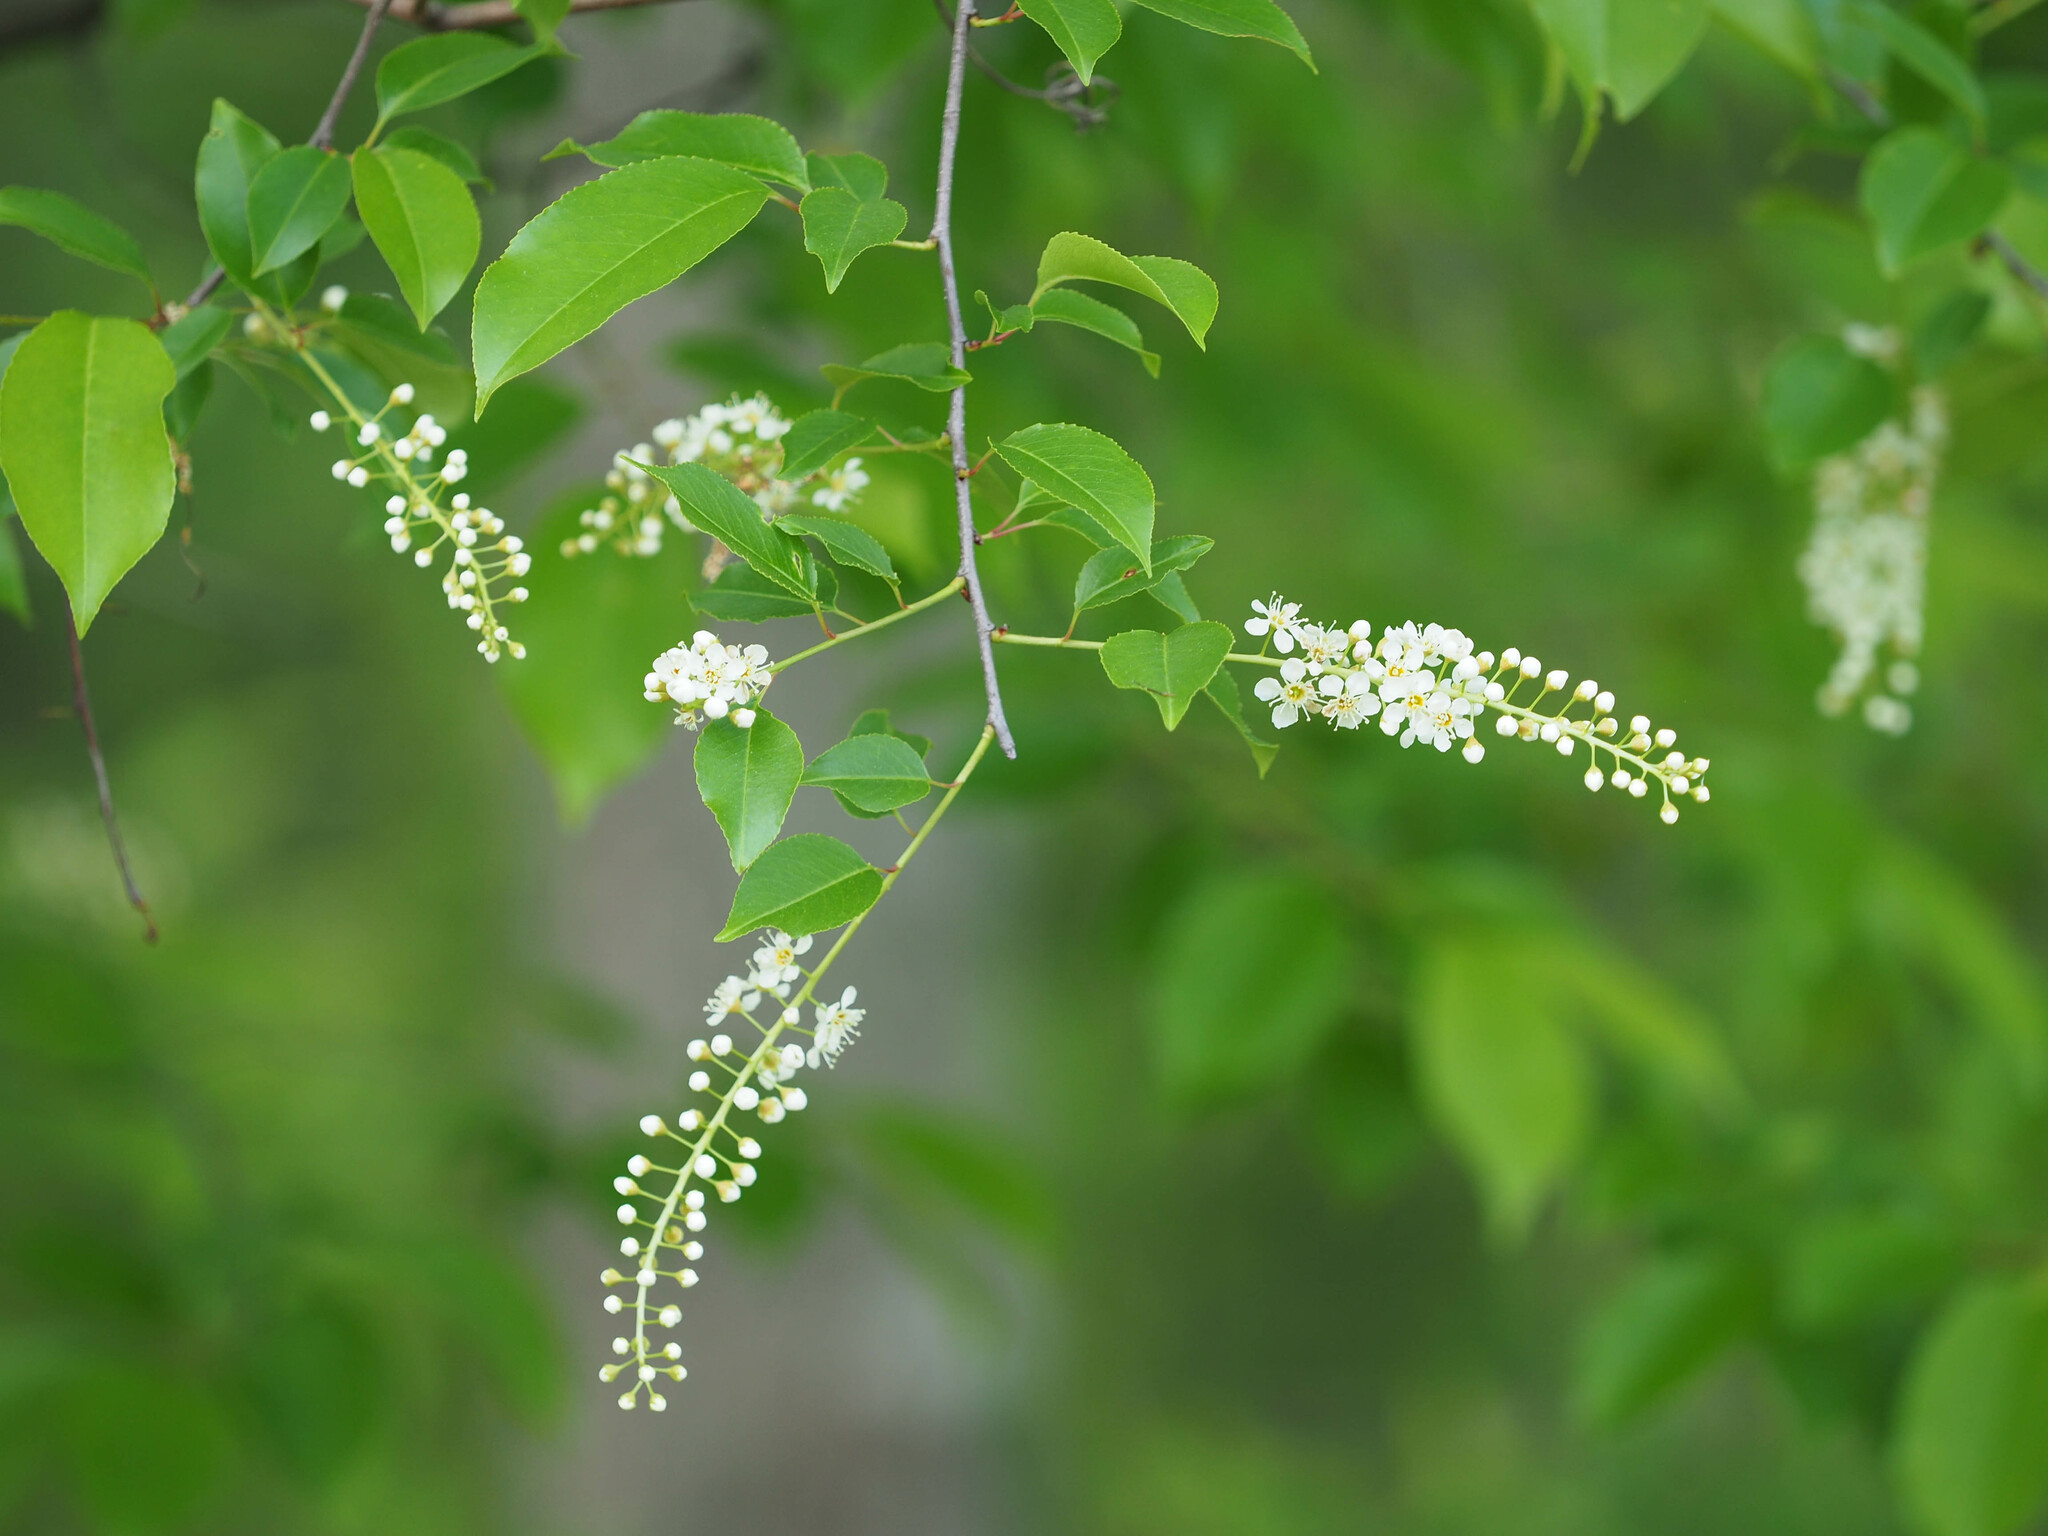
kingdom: Plantae
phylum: Tracheophyta
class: Magnoliopsida
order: Rosales
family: Rosaceae
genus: Prunus
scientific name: Prunus serotina
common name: Black cherry
